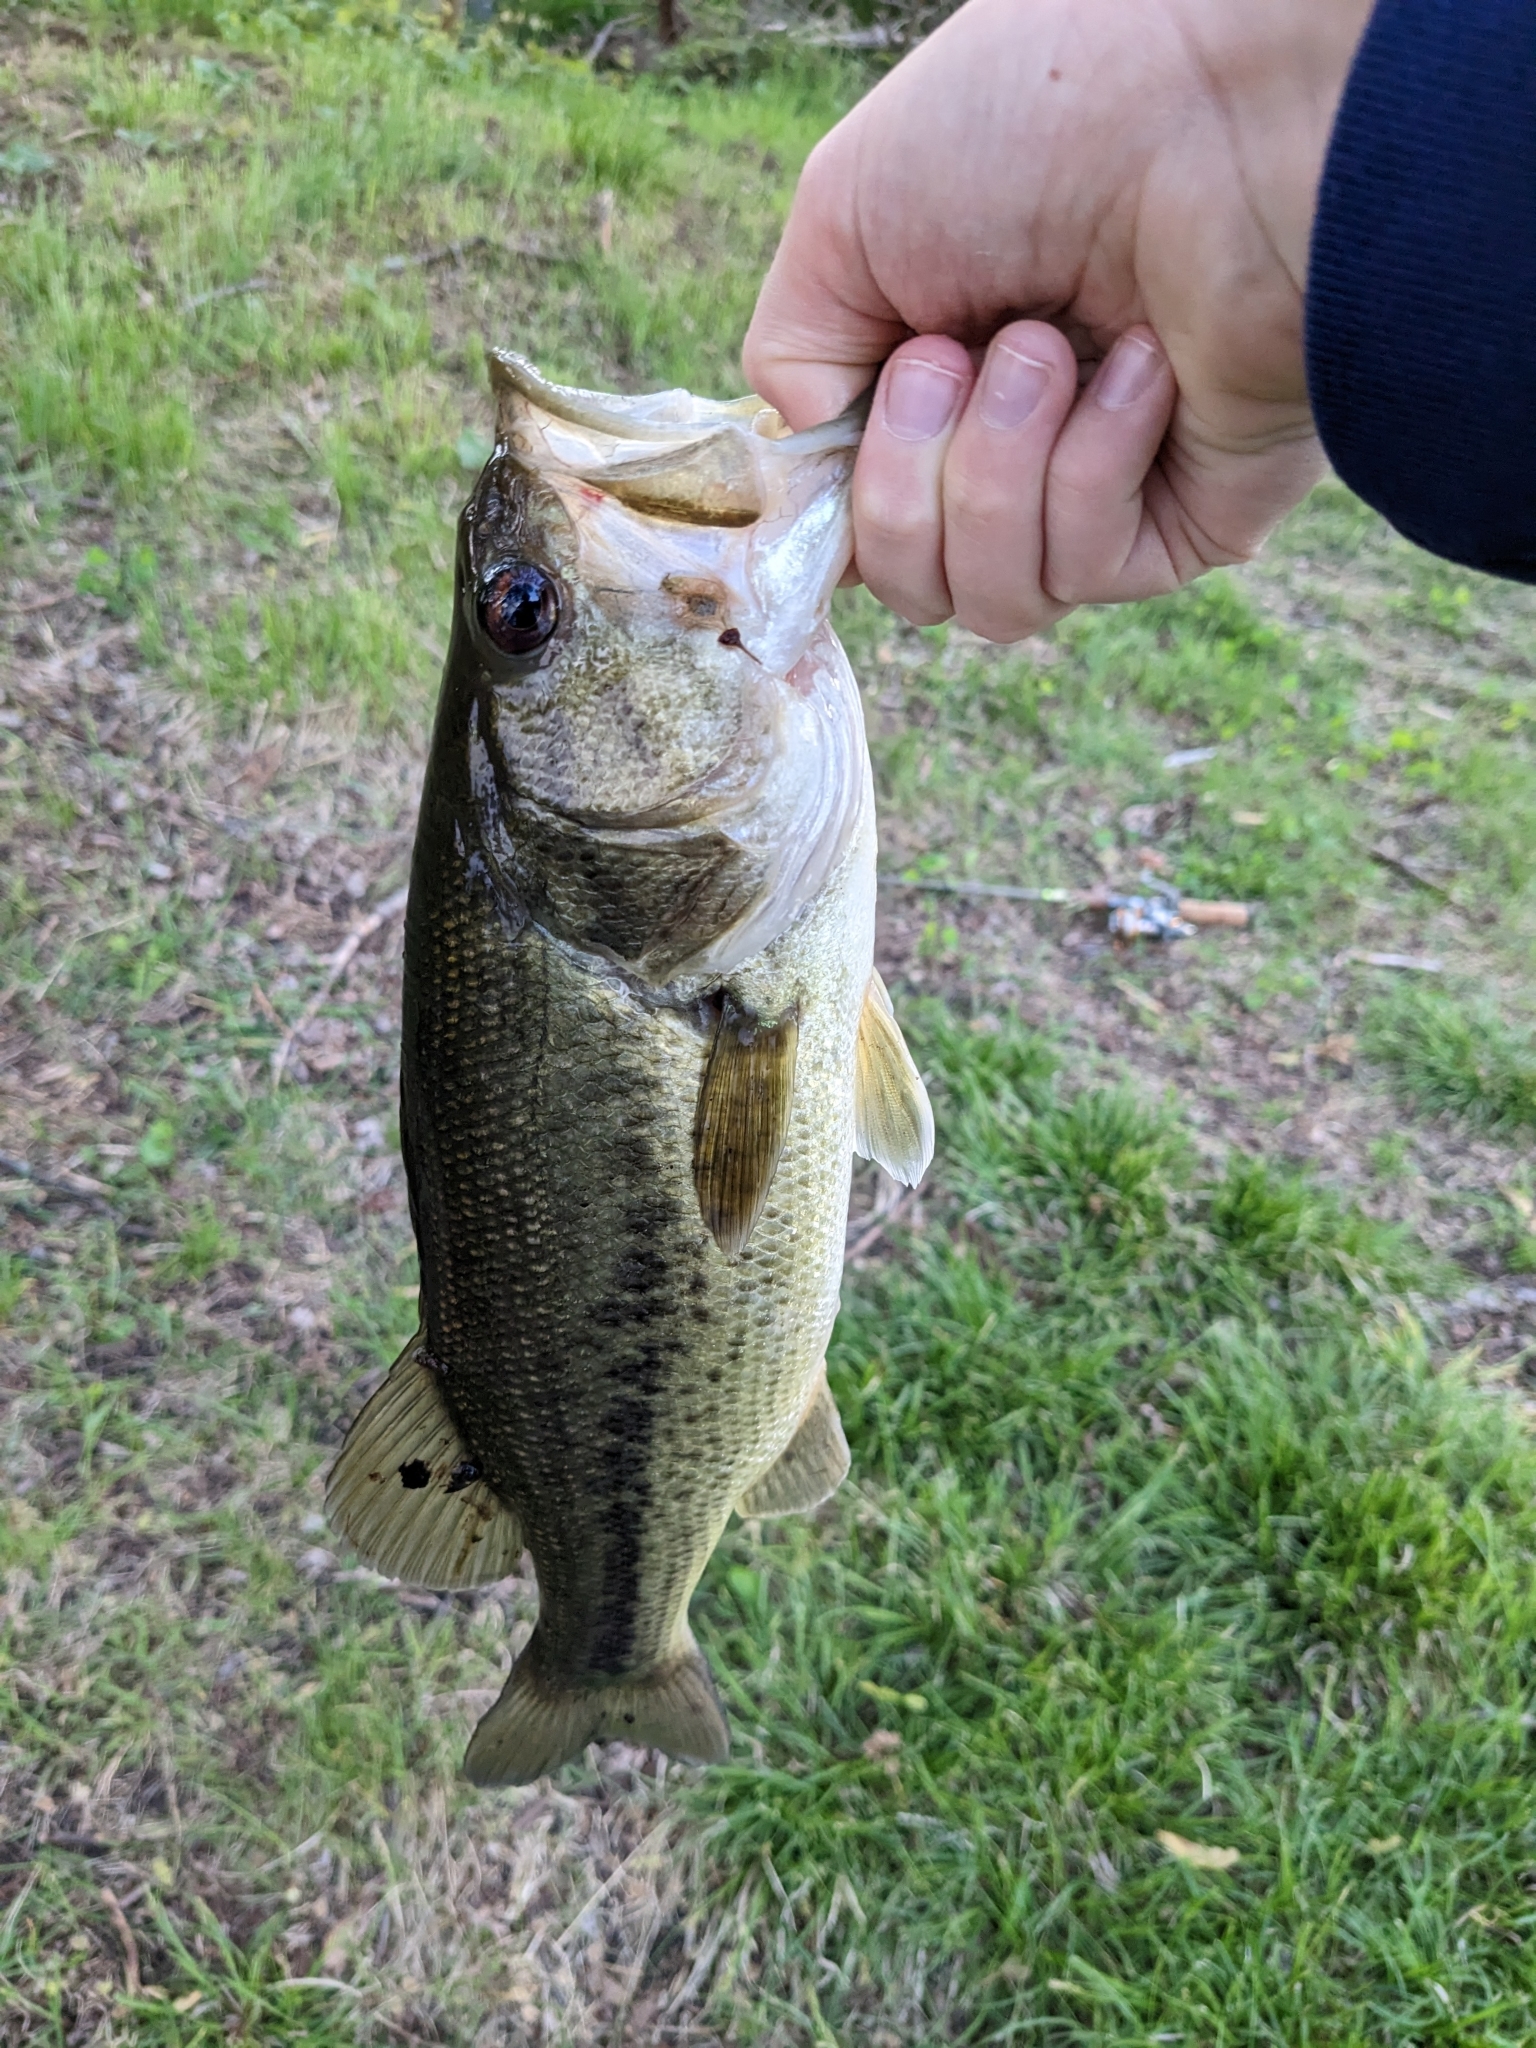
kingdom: Animalia
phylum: Chordata
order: Perciformes
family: Centrarchidae
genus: Micropterus
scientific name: Micropterus
